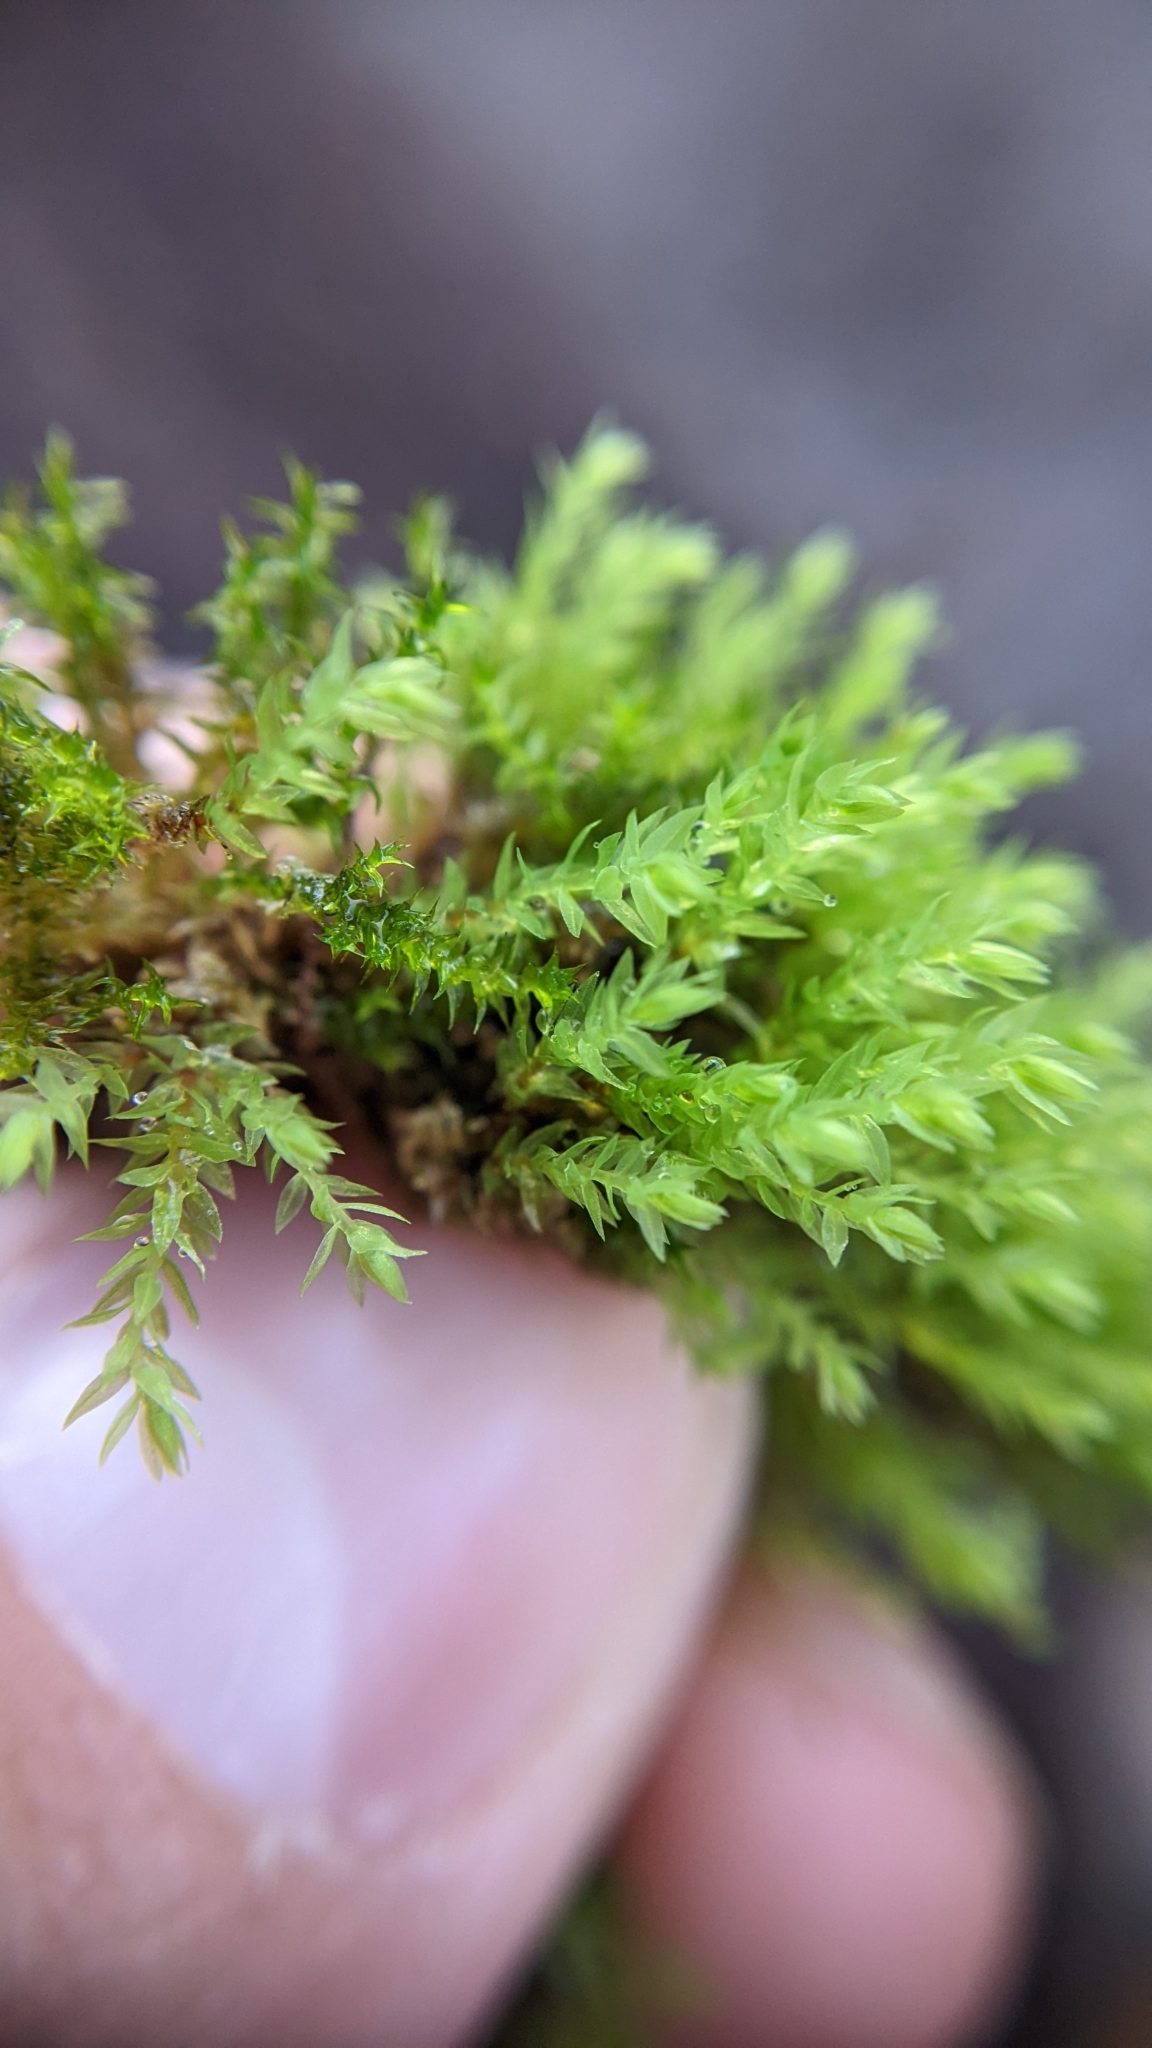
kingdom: Plantae
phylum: Bryophyta
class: Bryopsida
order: Bryales
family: Mniaceae
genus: Pohlia
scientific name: Pohlia wahlenbergii
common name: Wahlenberg's nodding moss
